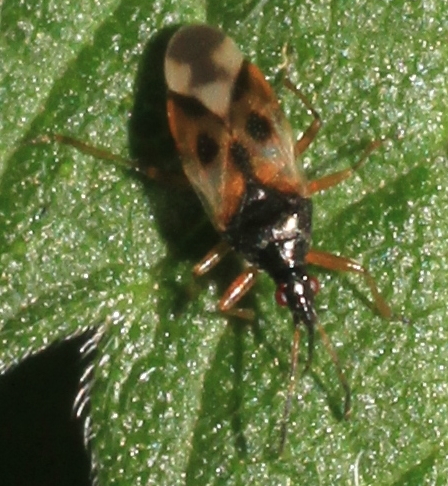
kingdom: Animalia
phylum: Arthropoda
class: Insecta
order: Hemiptera
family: Anthocoridae
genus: Anthocoris
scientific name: Anthocoris nemorum
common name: Minute pirate bug
